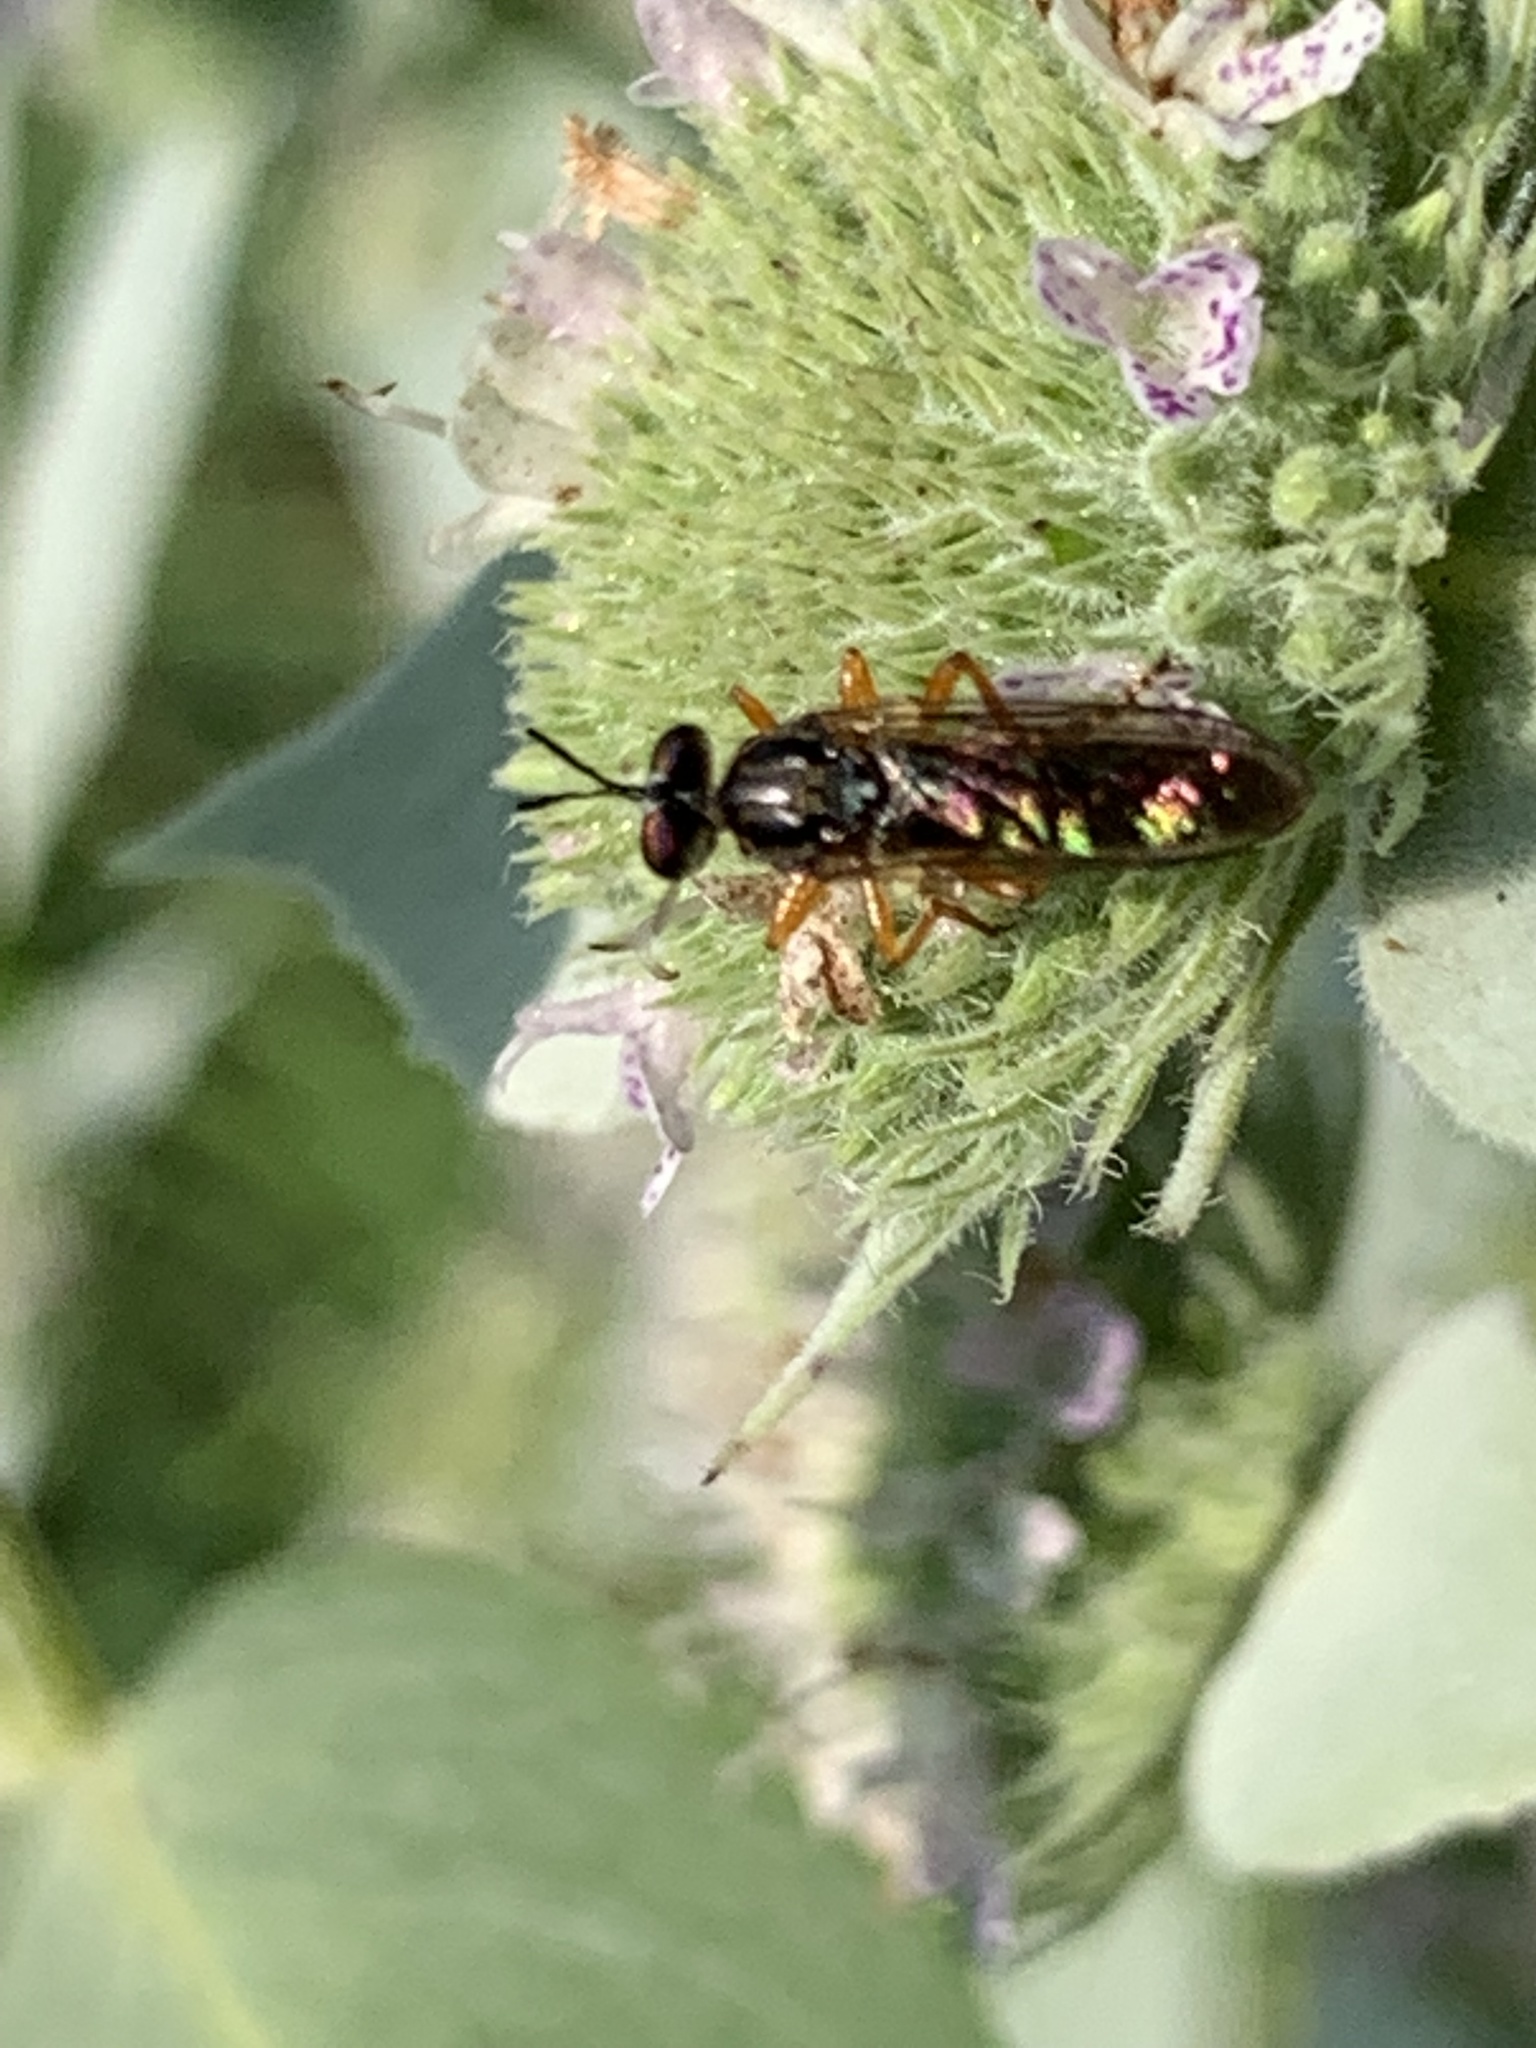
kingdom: Animalia
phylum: Arthropoda
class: Insecta
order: Diptera
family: Asilidae
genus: Taracticus
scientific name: Taracticus octopunctatus
